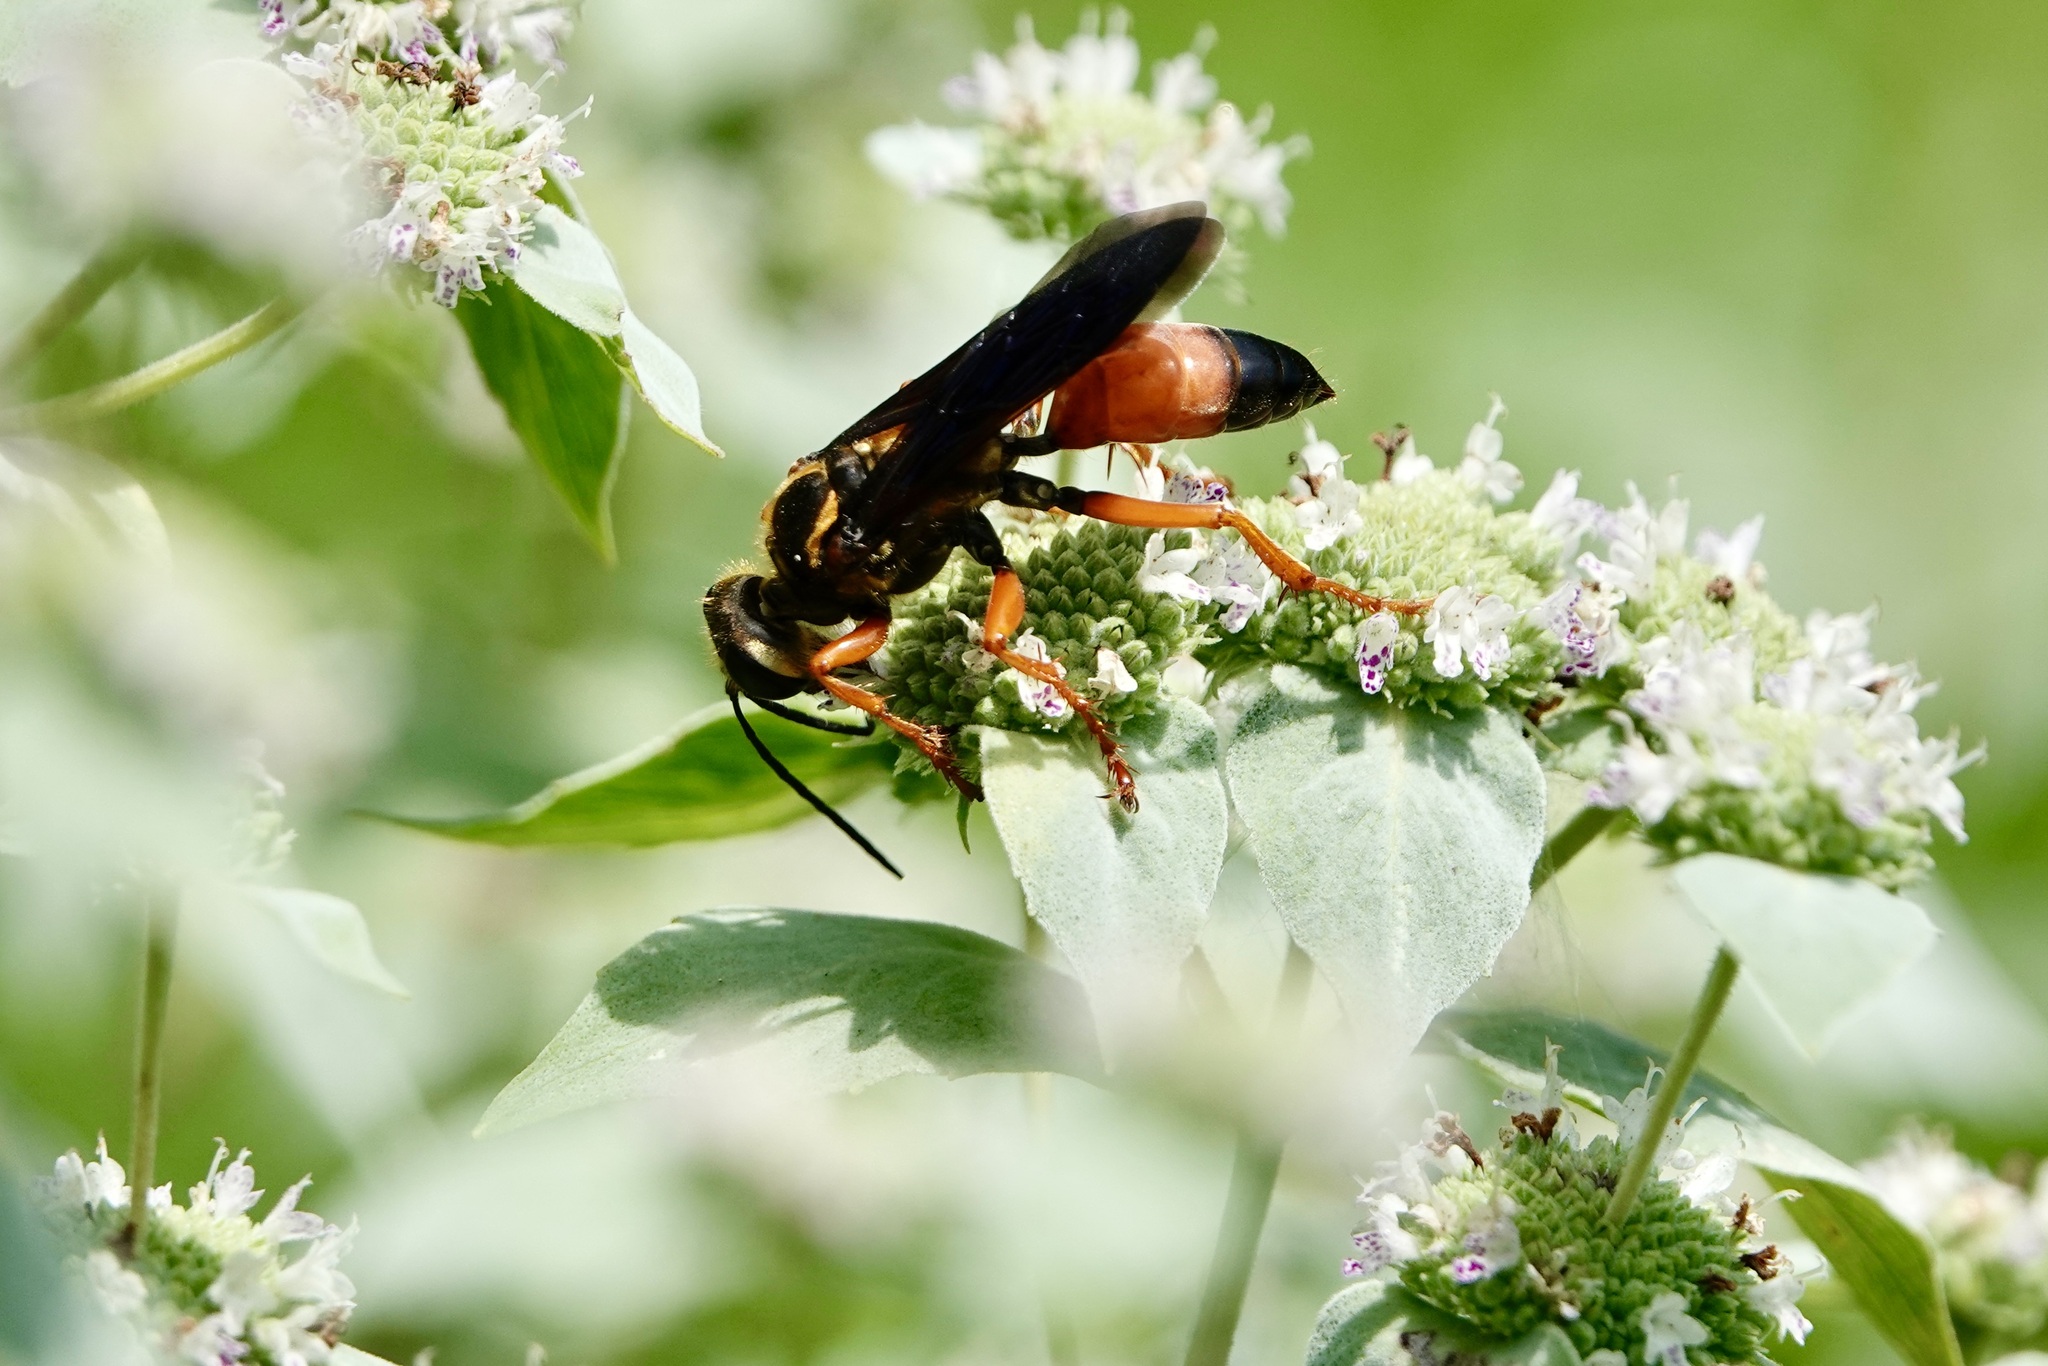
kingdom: Animalia
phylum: Arthropoda
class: Insecta
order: Hymenoptera
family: Sphecidae
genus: Sphex
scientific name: Sphex ichneumoneus
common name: Great golden digger wasp
